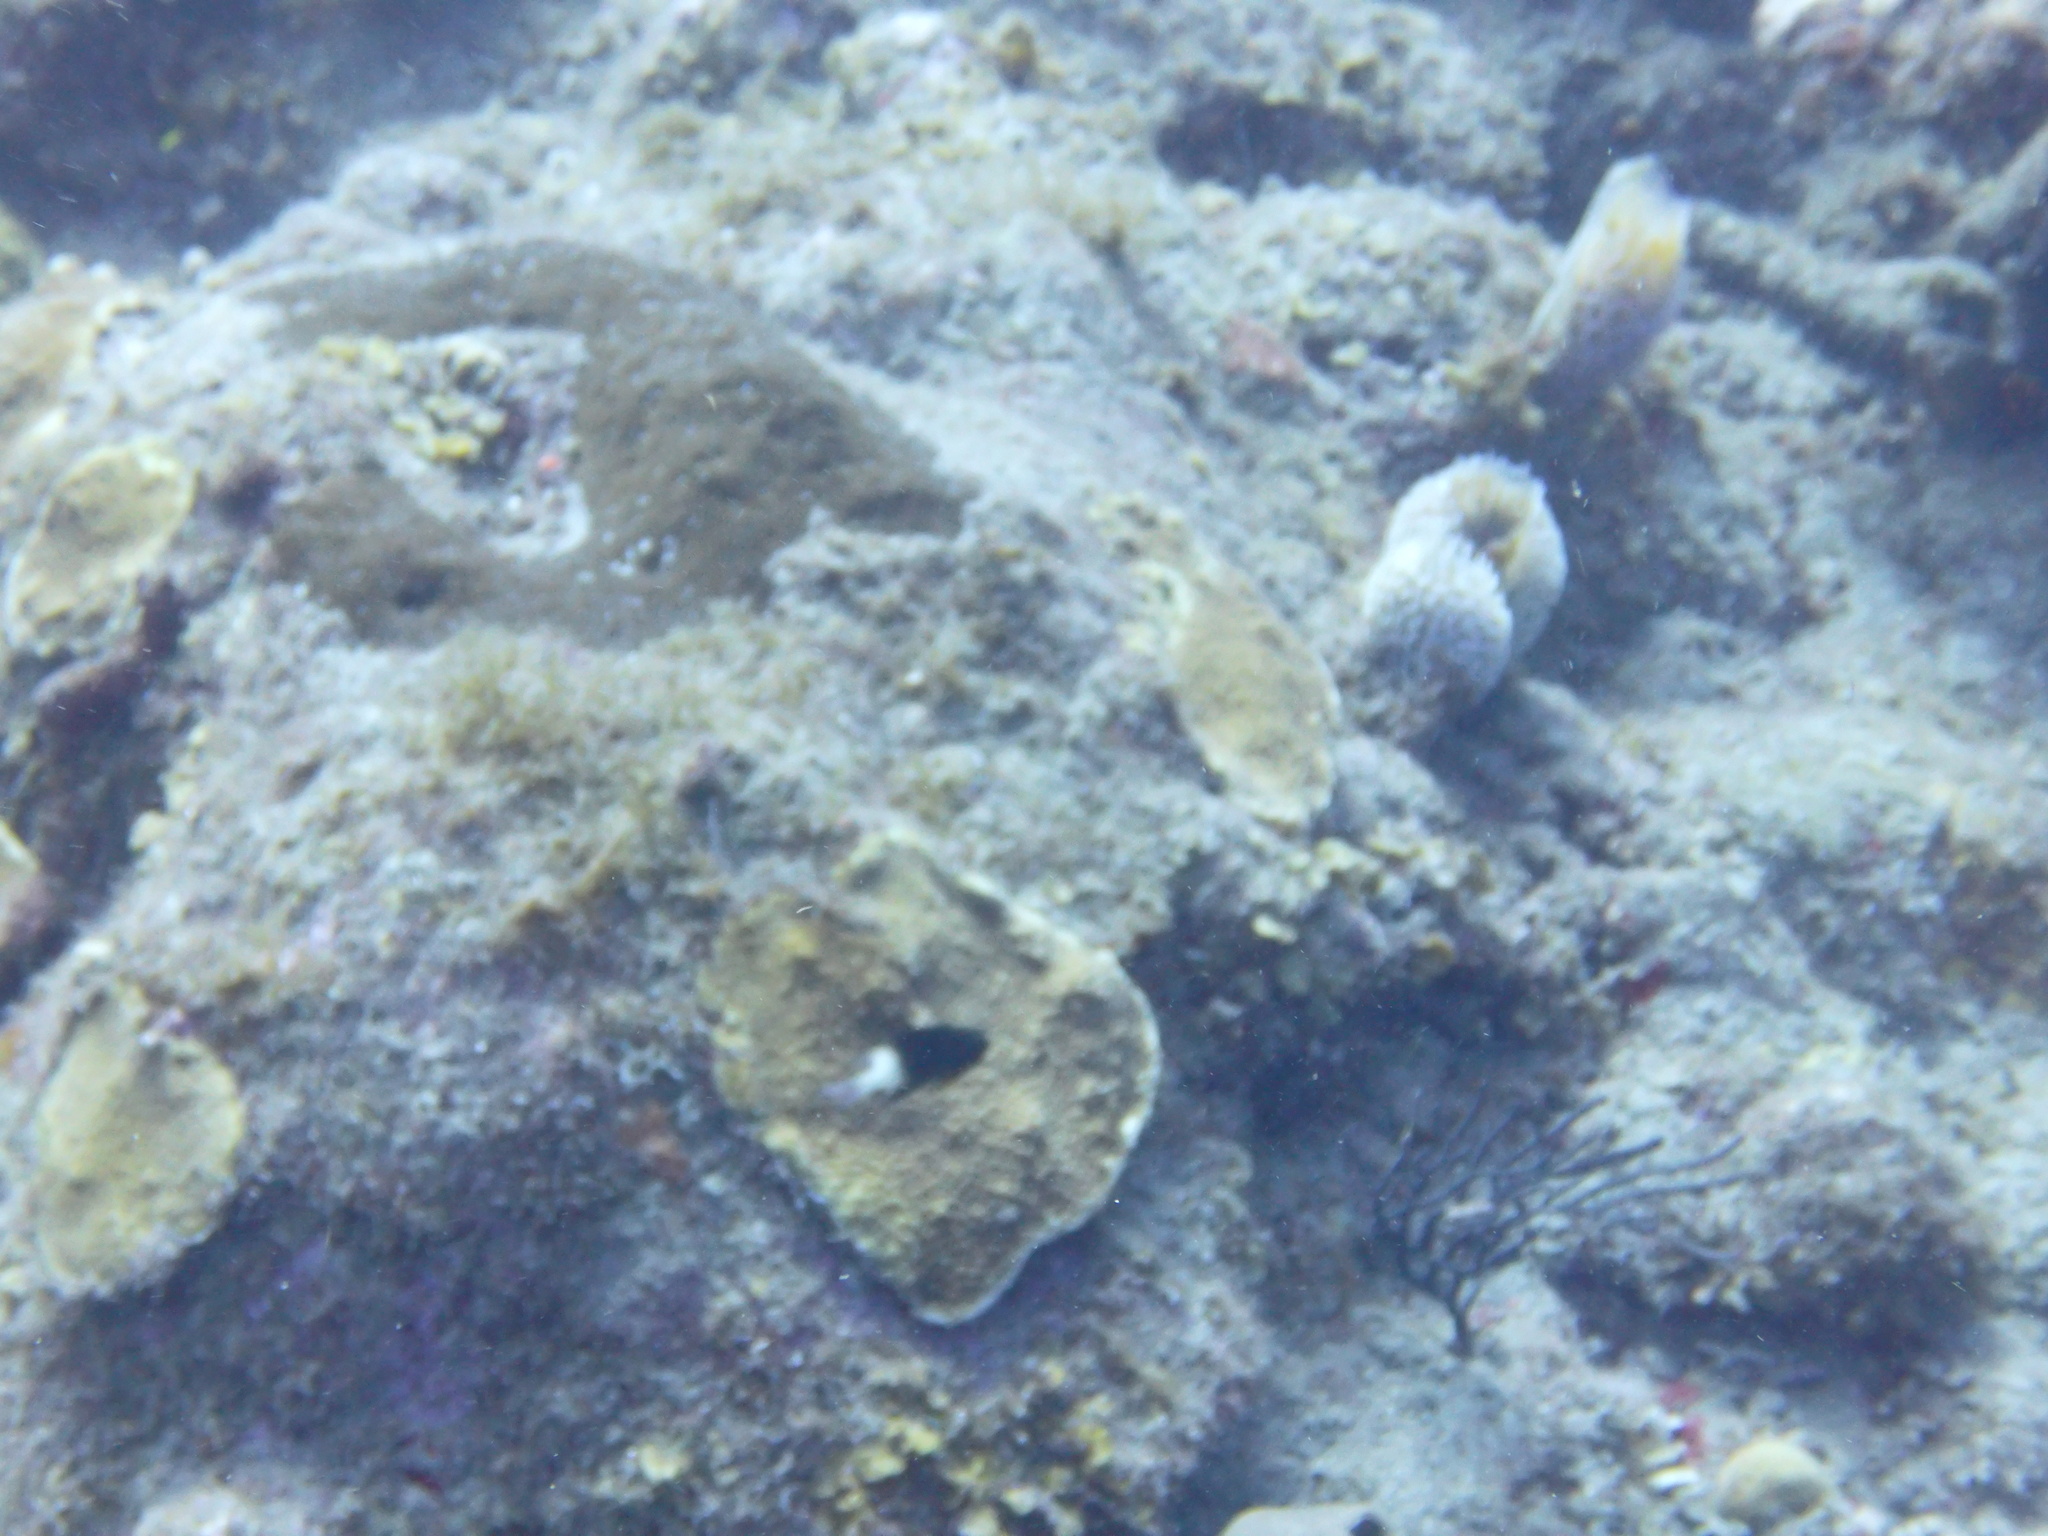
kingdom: Animalia
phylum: Chordata
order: Perciformes
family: Pomacentridae
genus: Stegastes
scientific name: Stegastes partitus
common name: Bicolor damselfish
